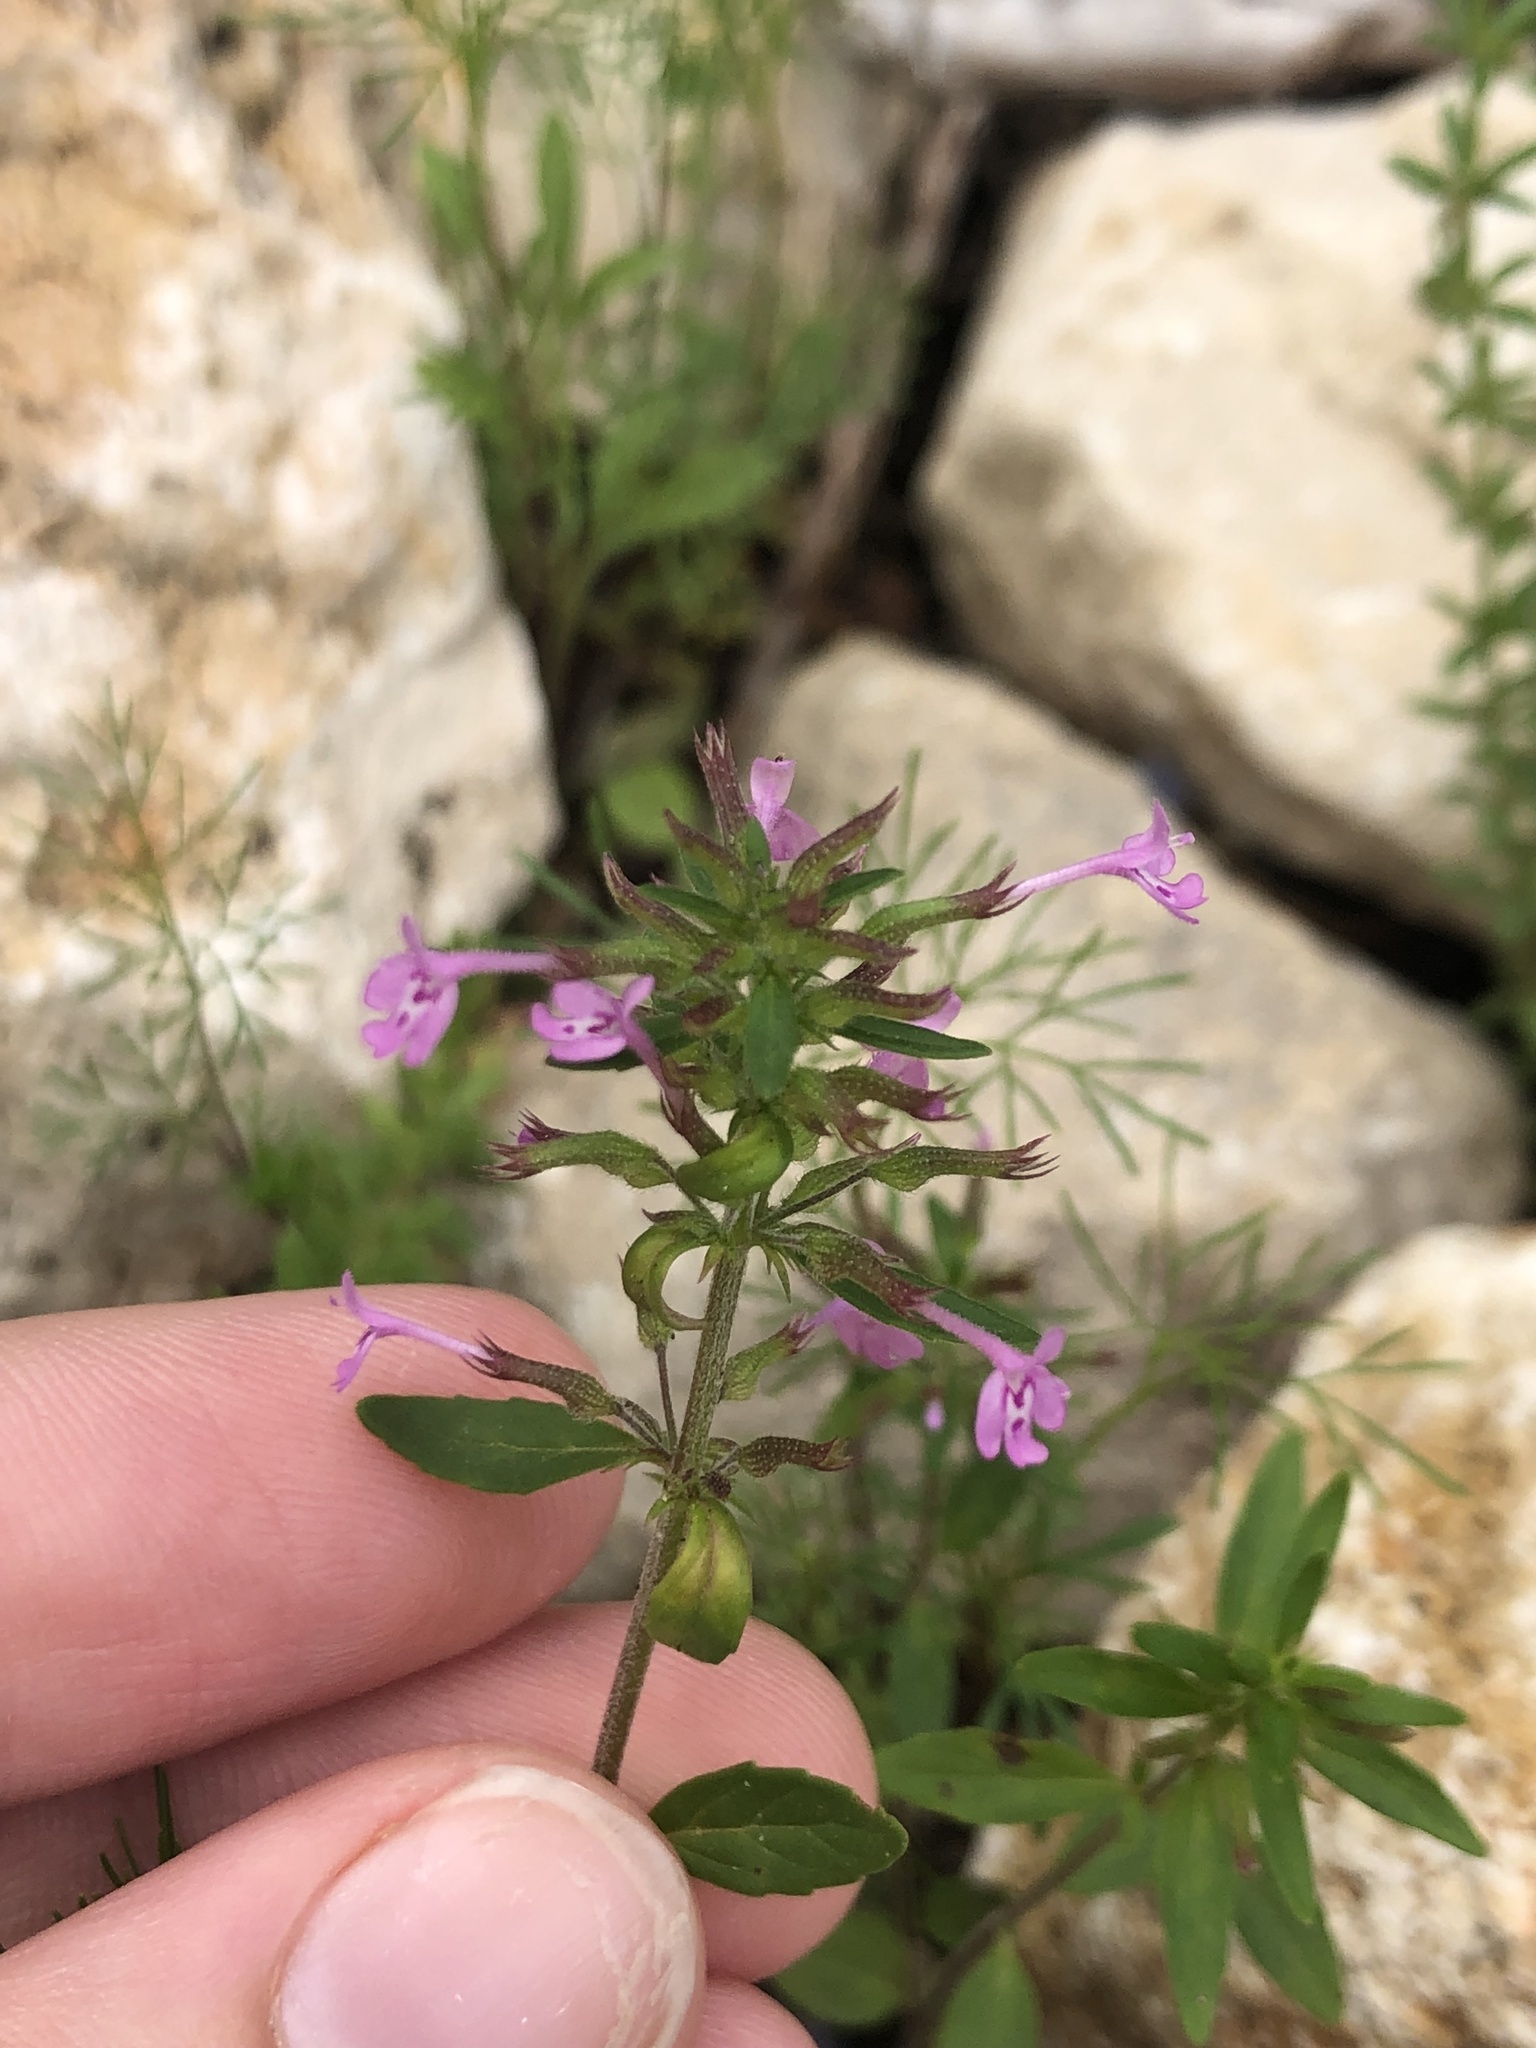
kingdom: Plantae
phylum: Tracheophyta
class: Magnoliopsida
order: Lamiales
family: Lamiaceae
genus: Hedeoma
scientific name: Hedeoma acinoides
